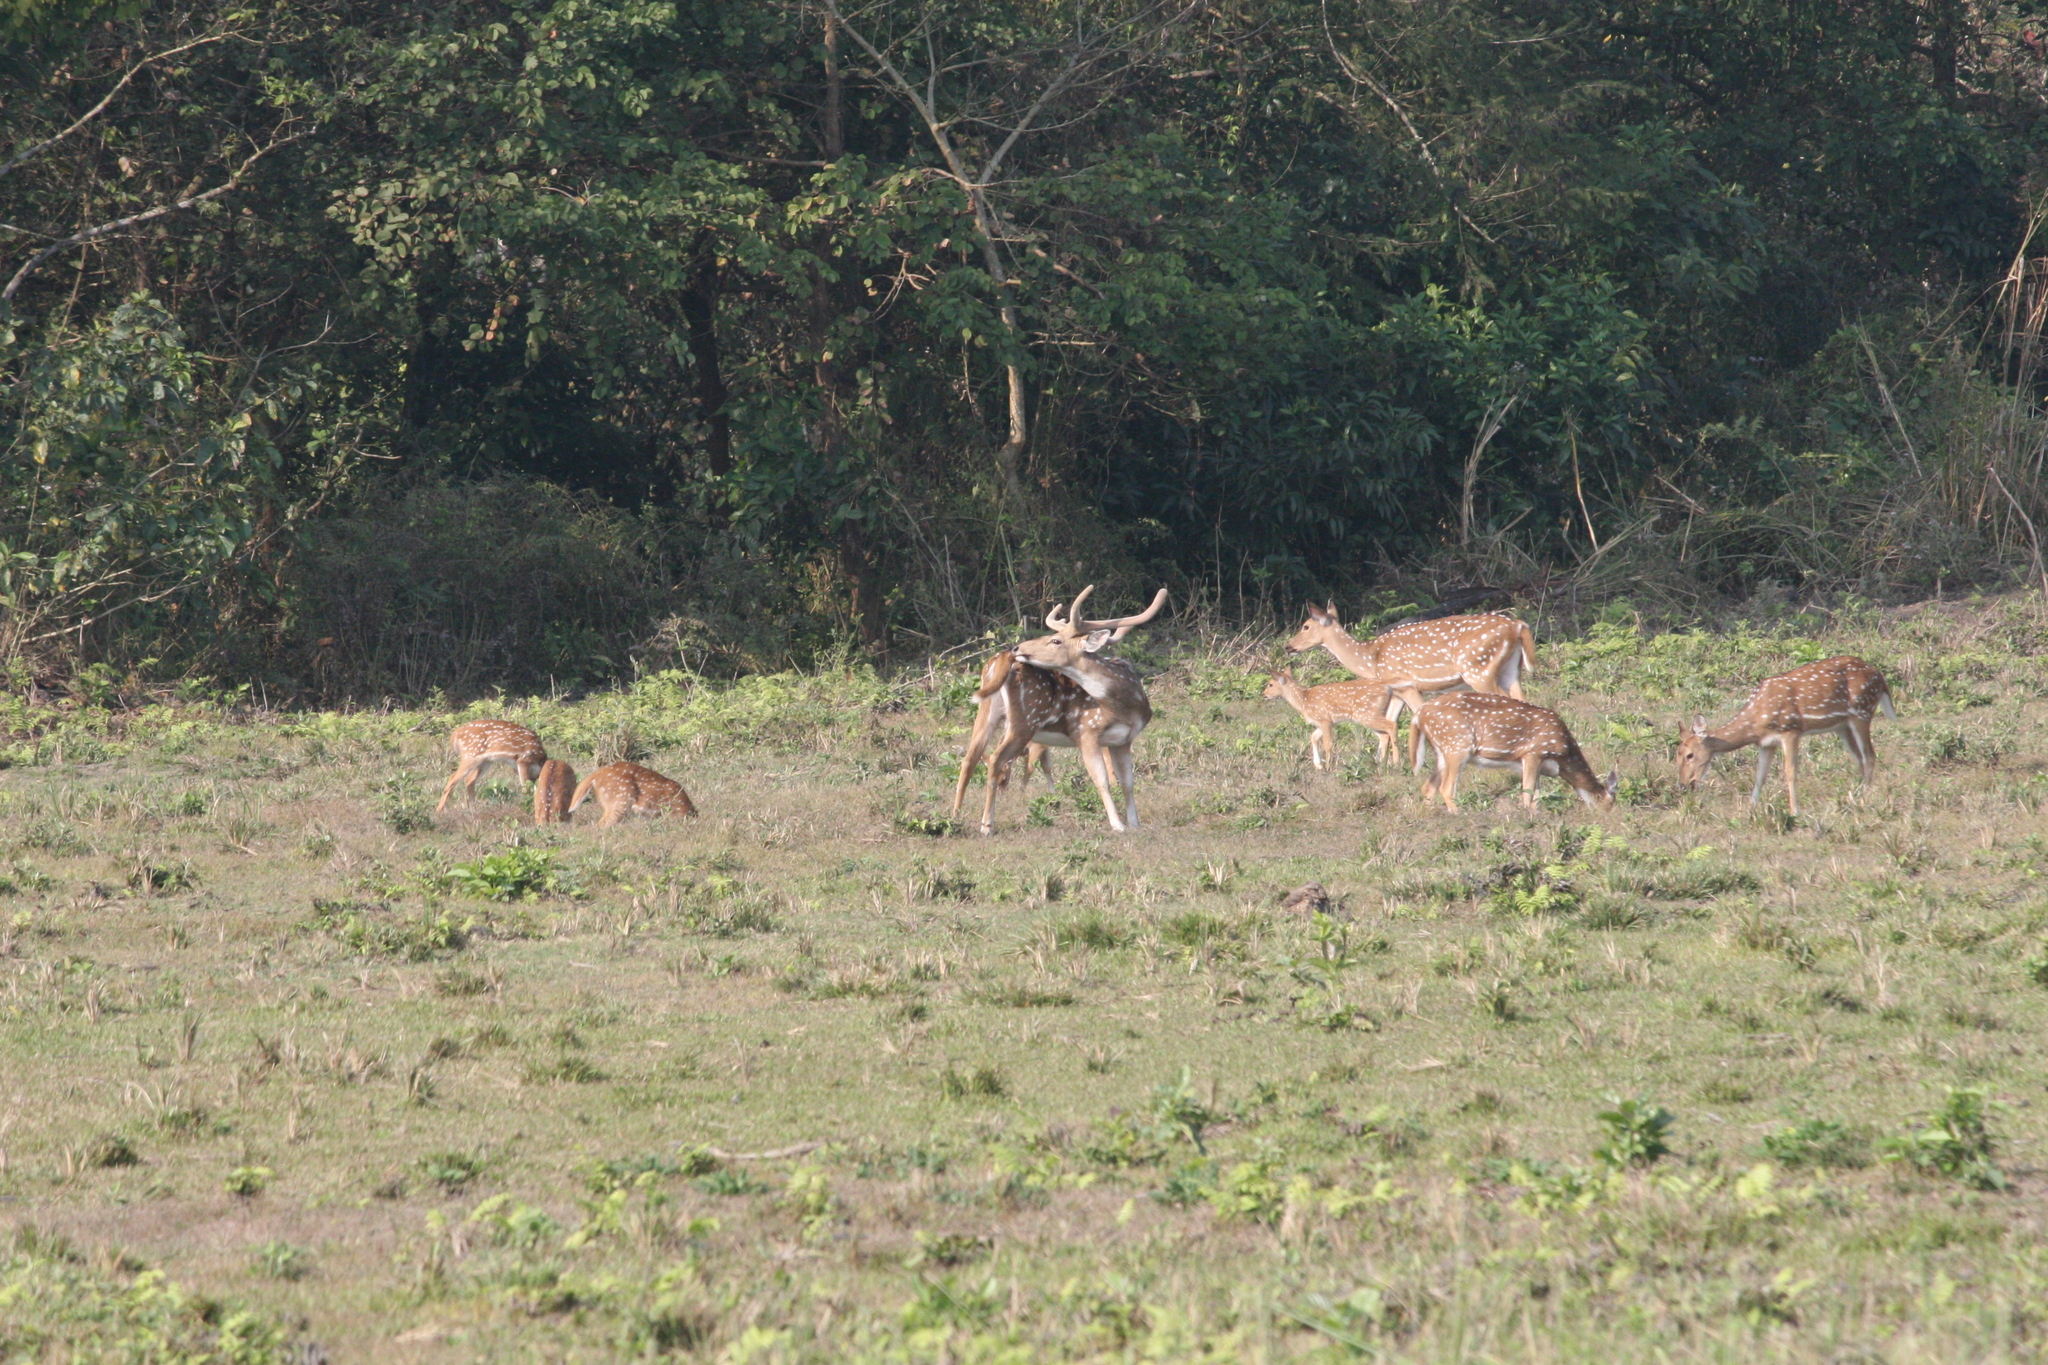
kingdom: Animalia
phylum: Chordata
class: Mammalia
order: Artiodactyla
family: Cervidae
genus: Axis
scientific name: Axis axis
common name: Chital
